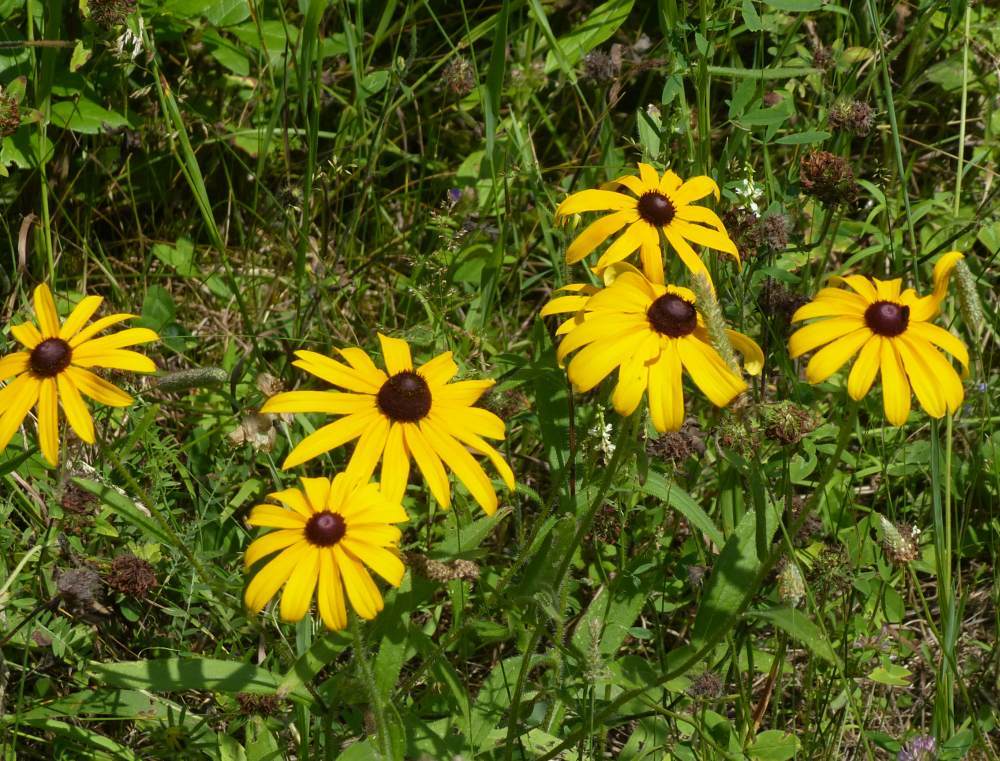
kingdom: Plantae
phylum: Tracheophyta
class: Magnoliopsida
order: Asterales
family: Asteraceae
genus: Rudbeckia
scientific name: Rudbeckia hirta
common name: Black-eyed-susan
